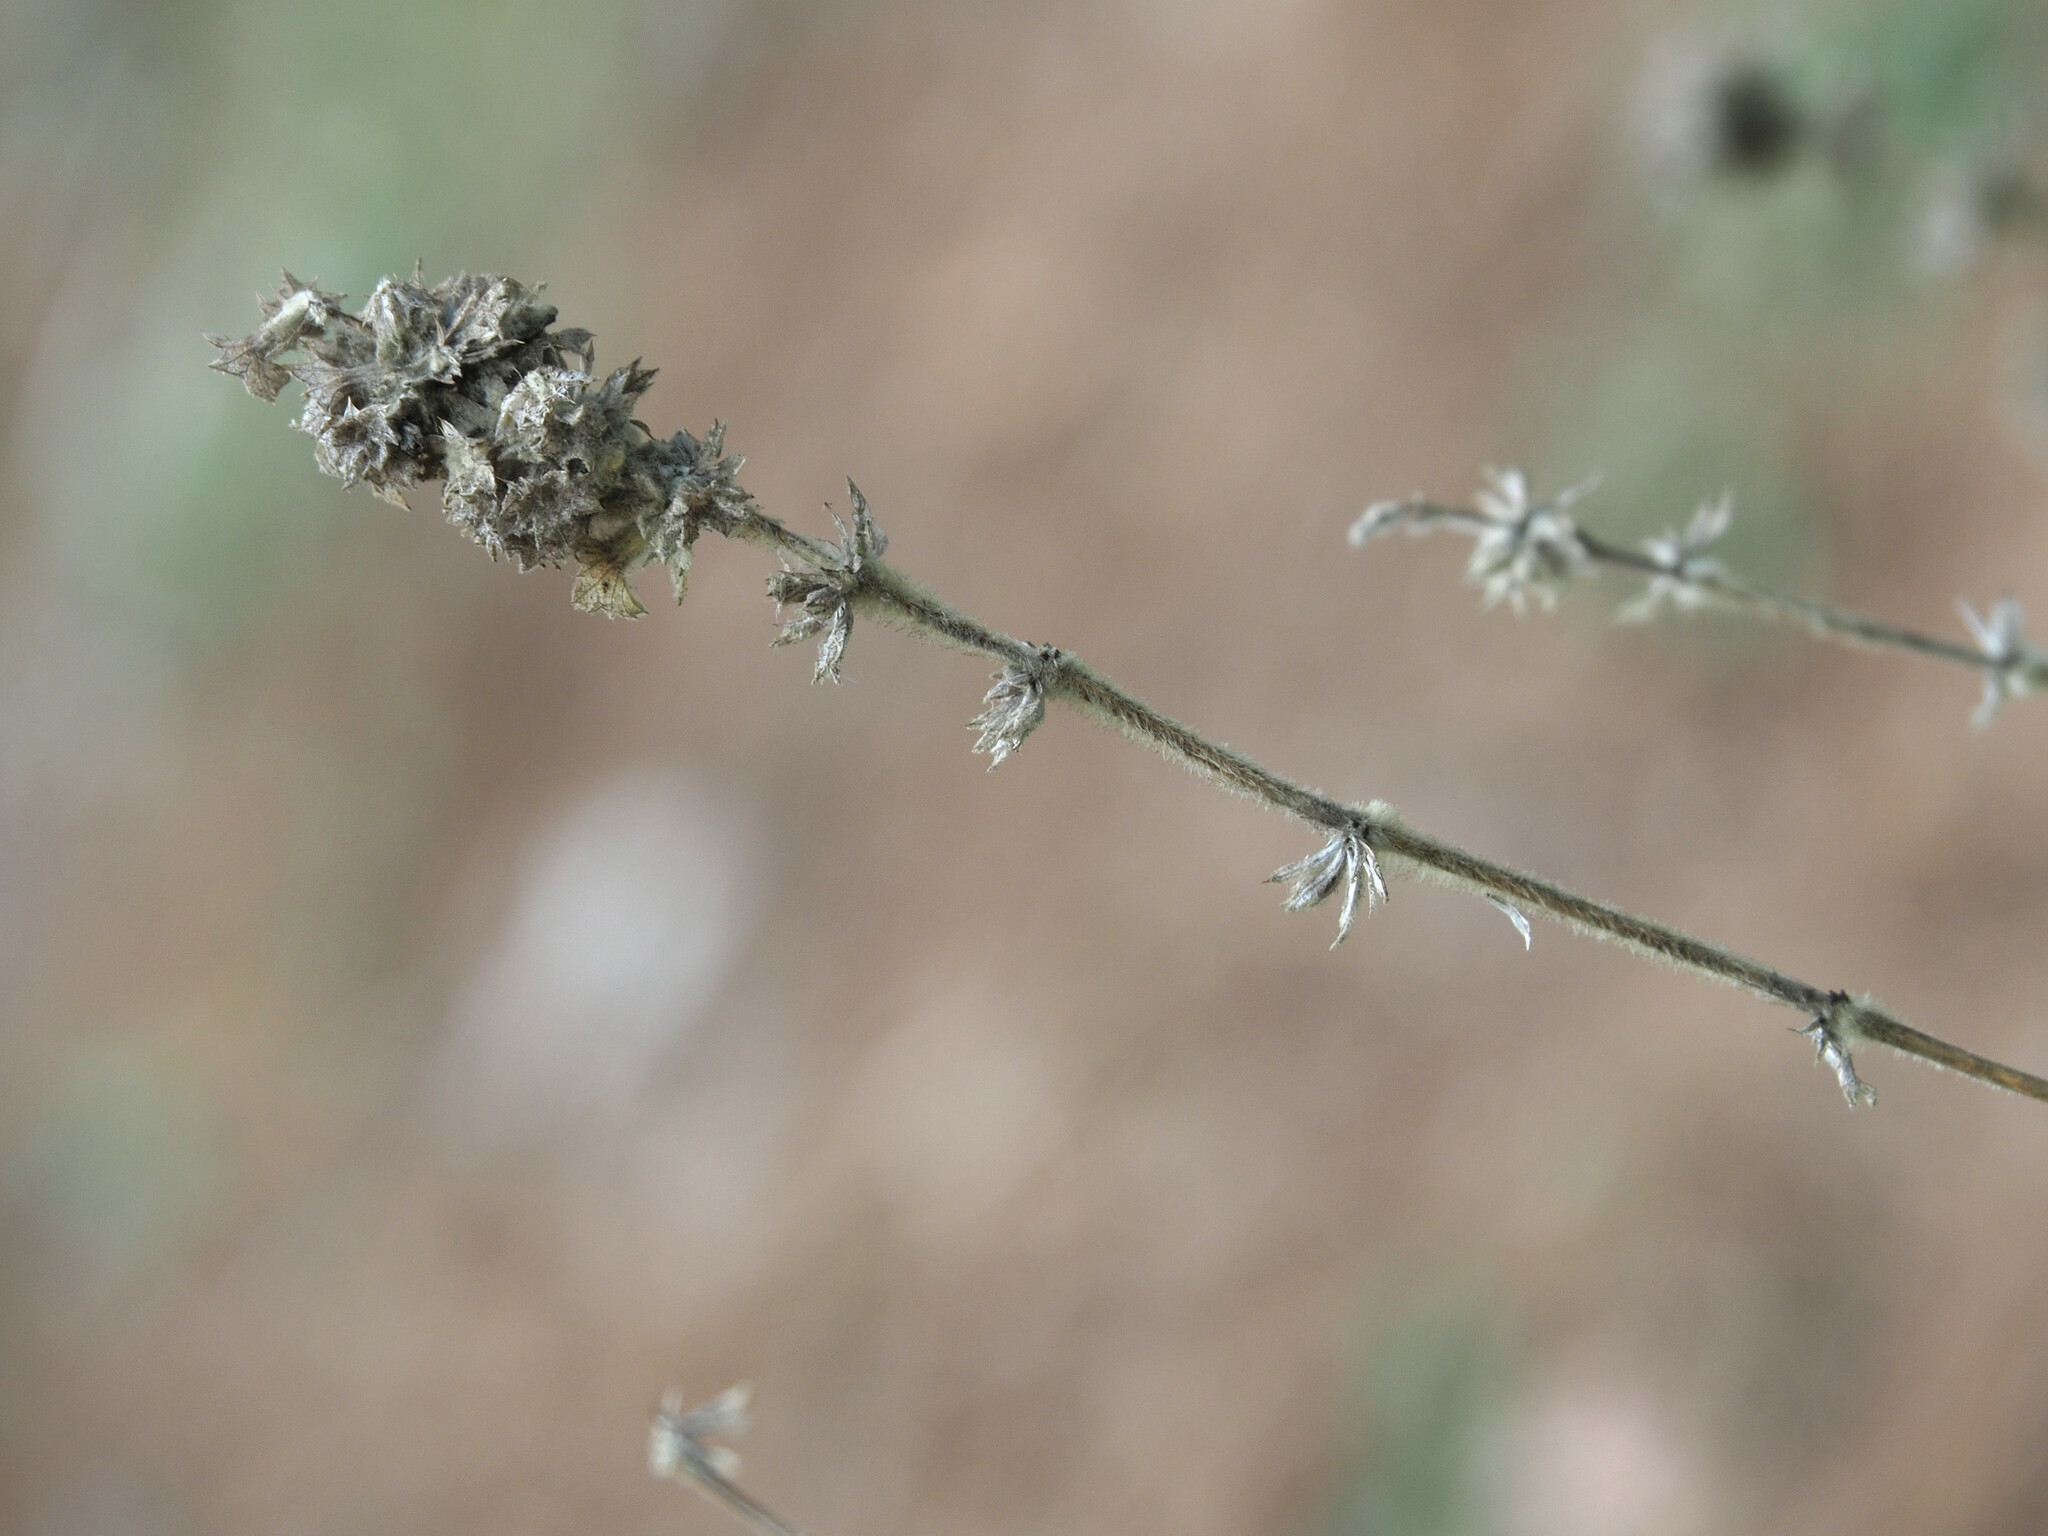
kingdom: Plantae
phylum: Tracheophyta
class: Magnoliopsida
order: Lamiales
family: Lamiaceae
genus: Pseudodictamnus
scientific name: Pseudodictamnus hirsutus
